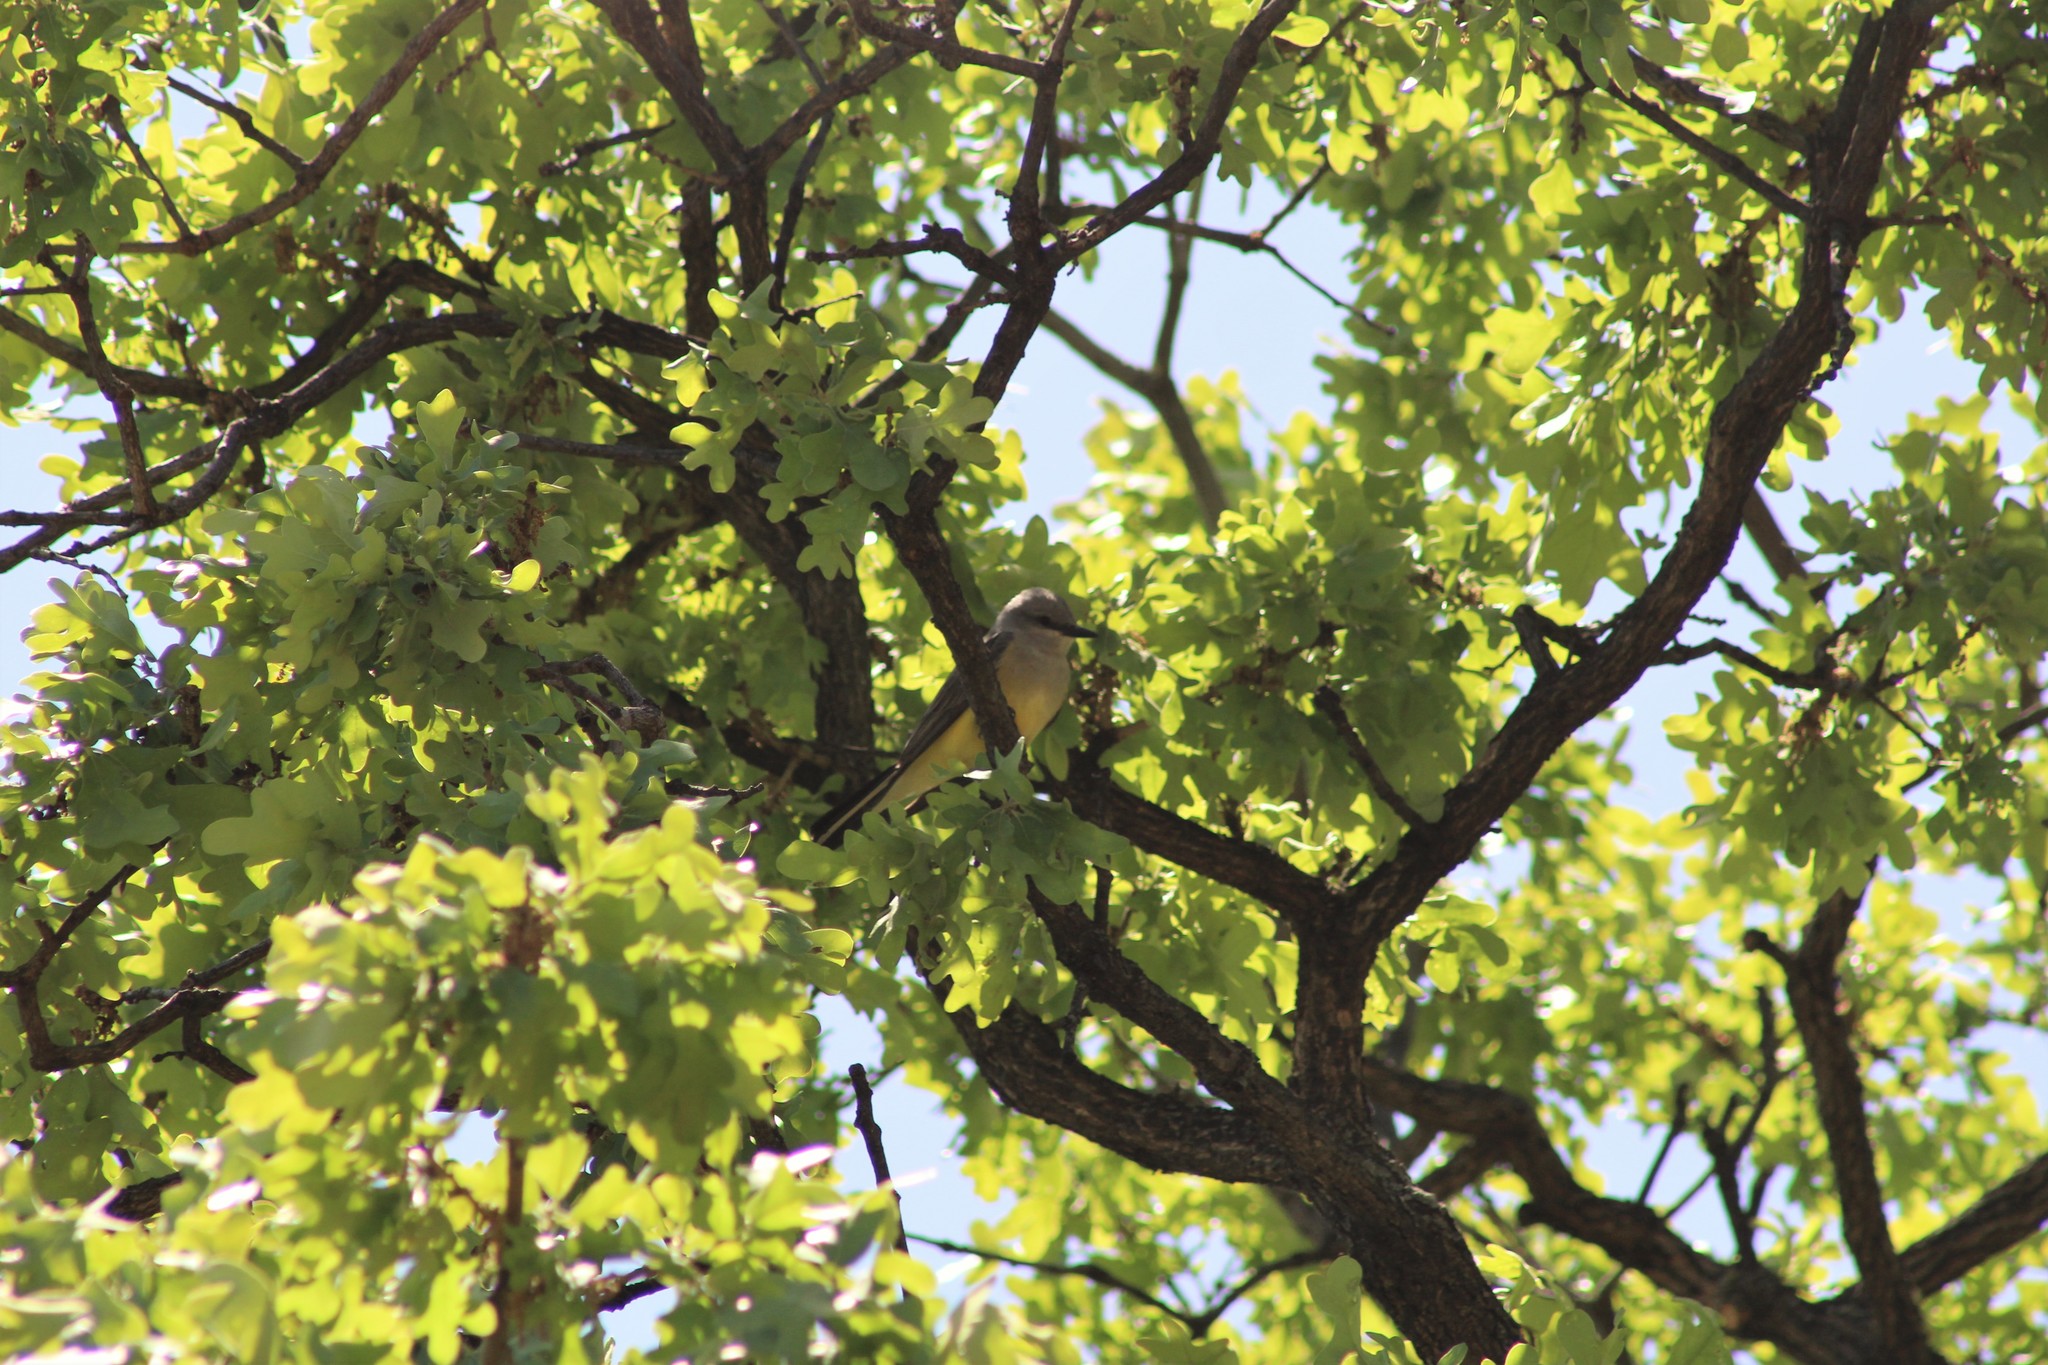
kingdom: Animalia
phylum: Chordata
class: Aves
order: Passeriformes
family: Tyrannidae
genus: Tyrannus
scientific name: Tyrannus verticalis
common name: Western kingbird
